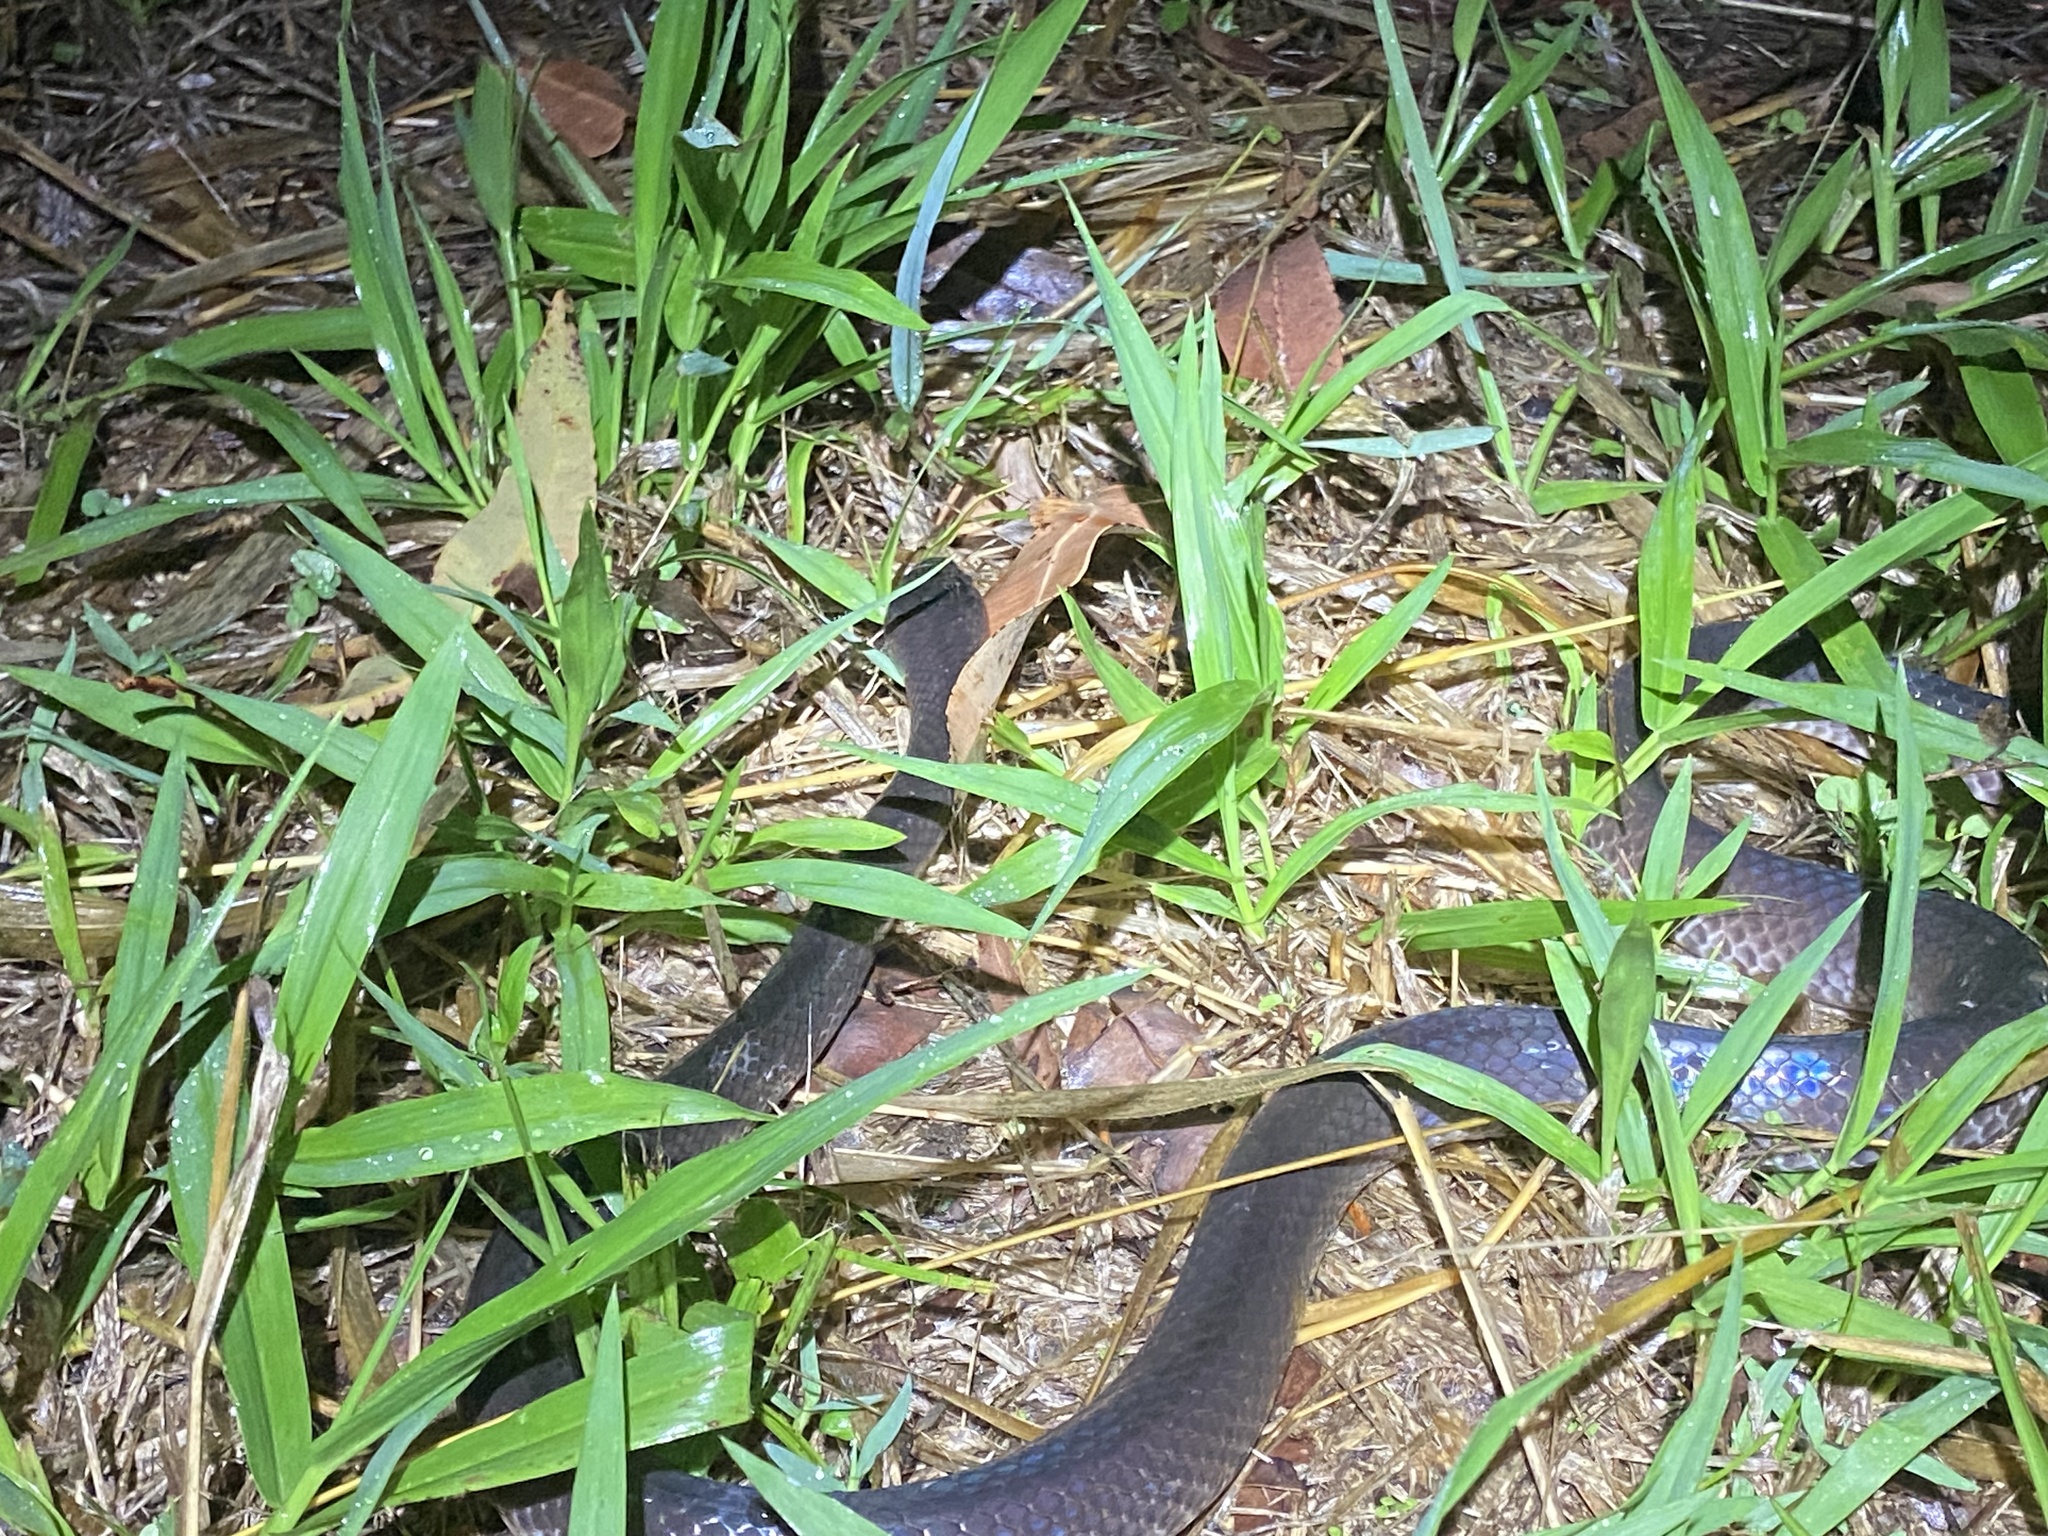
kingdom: Animalia
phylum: Chordata
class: Squamata
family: Colubridae
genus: Stegonotus
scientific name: Stegonotus australis
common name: Australian groundsnake
